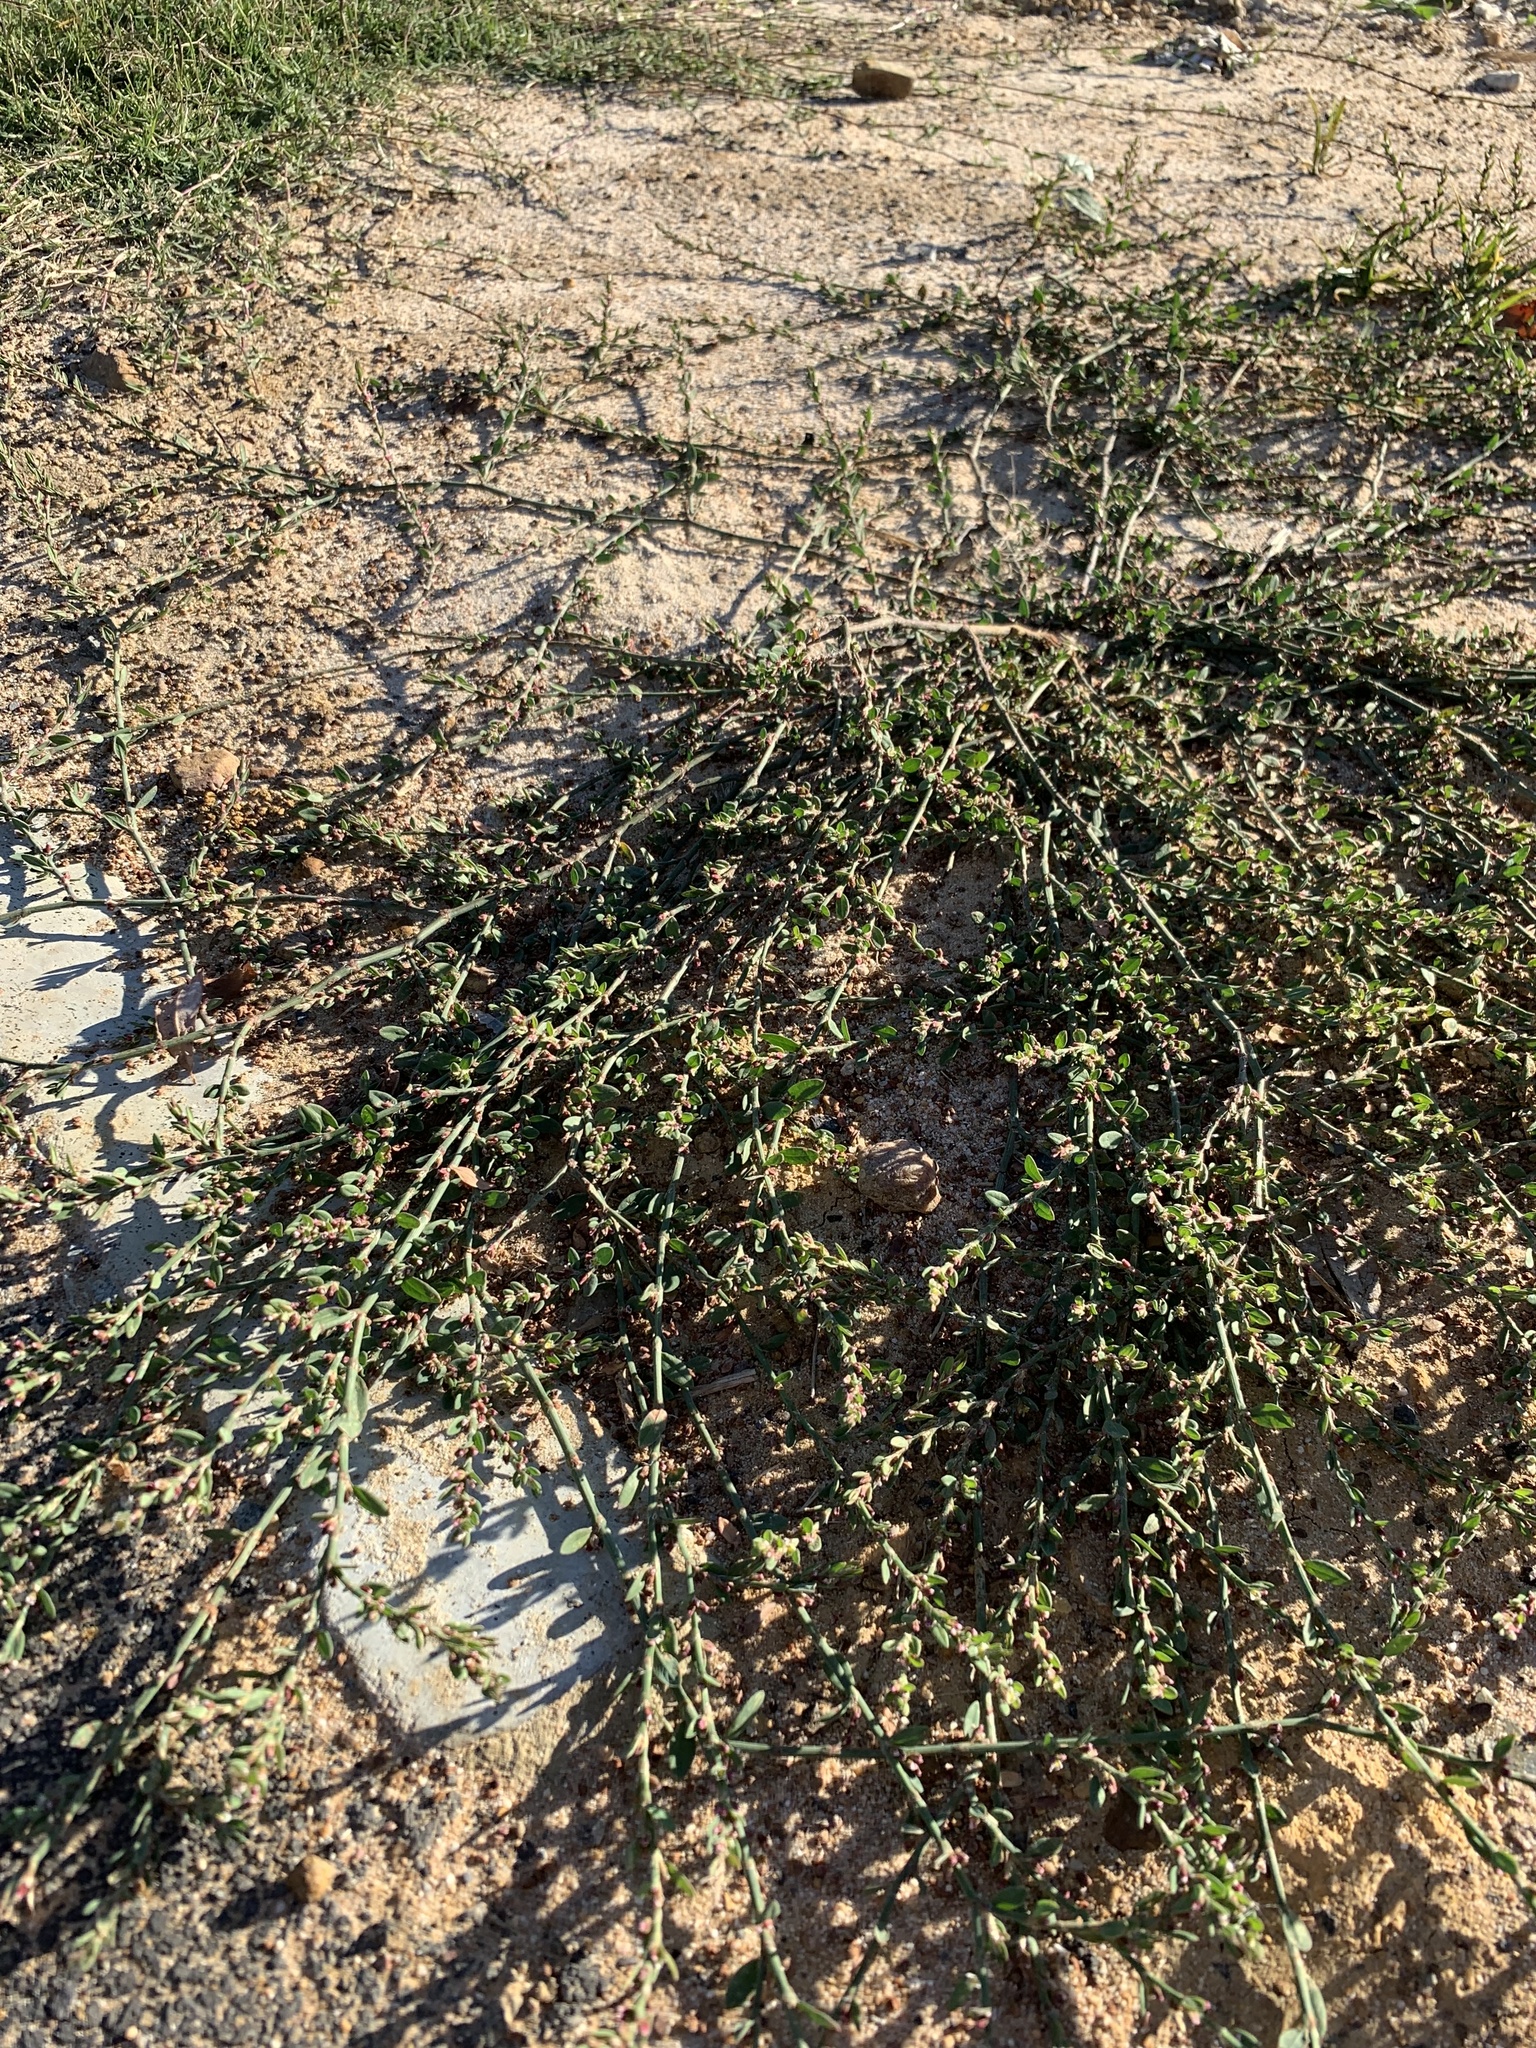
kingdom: Plantae
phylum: Tracheophyta
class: Magnoliopsida
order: Caryophyllales
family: Polygonaceae
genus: Polygonum
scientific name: Polygonum aviculare
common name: Prostrate knotweed
